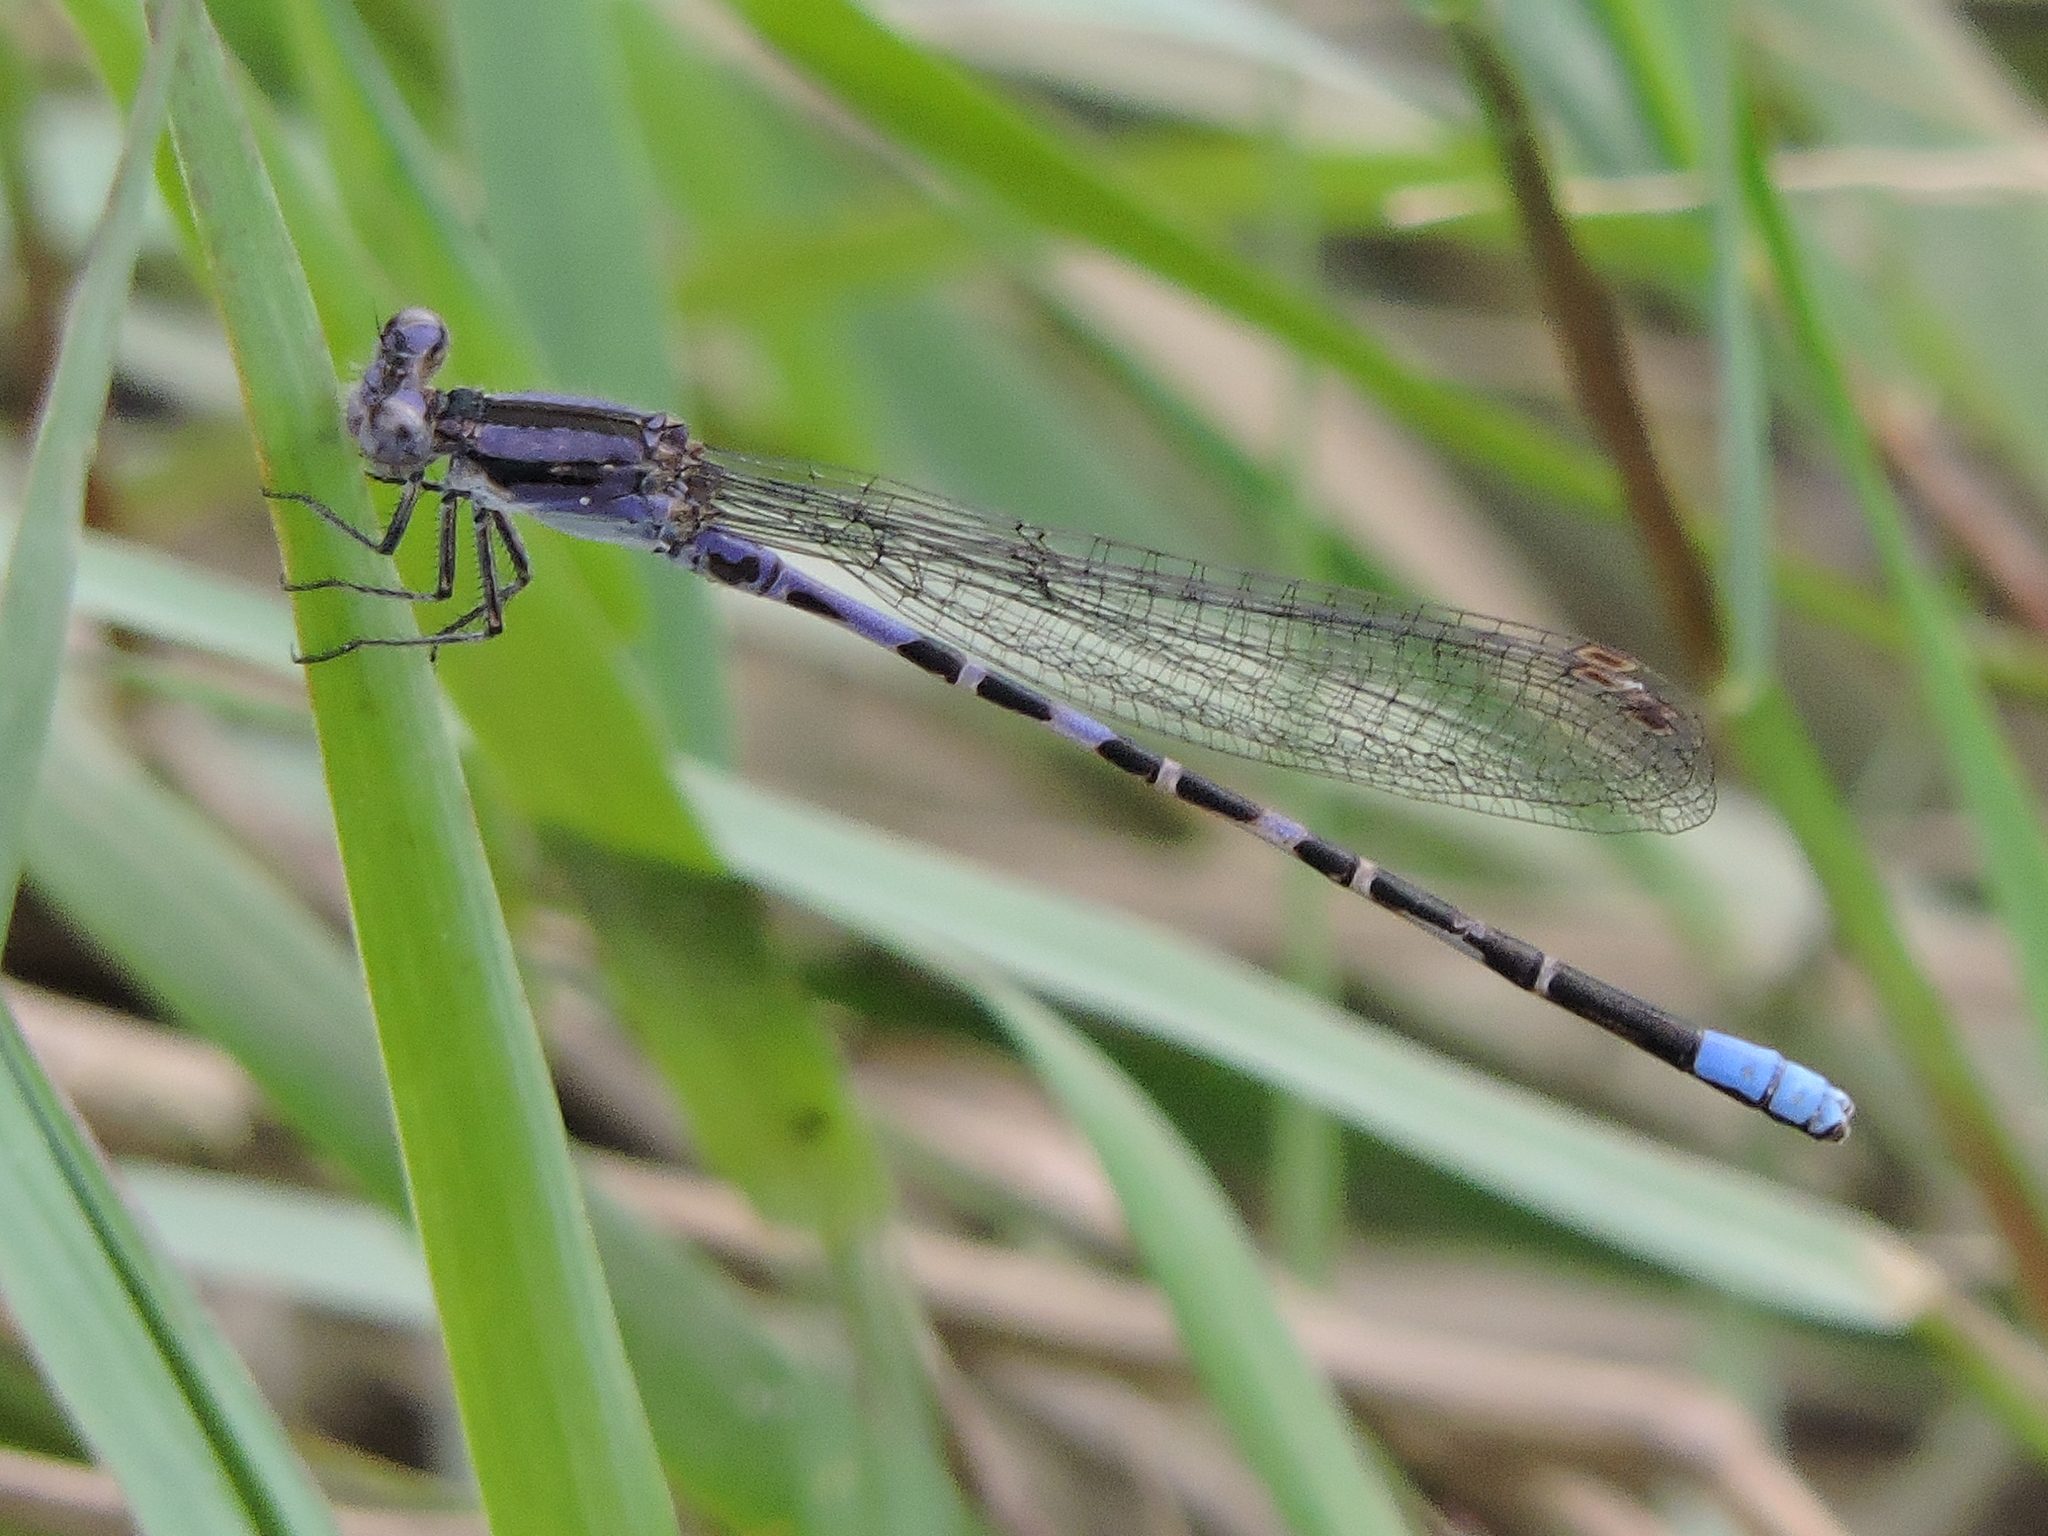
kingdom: Animalia
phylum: Arthropoda
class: Insecta
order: Odonata
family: Coenagrionidae
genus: Argia
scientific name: Argia immunda
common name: Kiowa dancer
